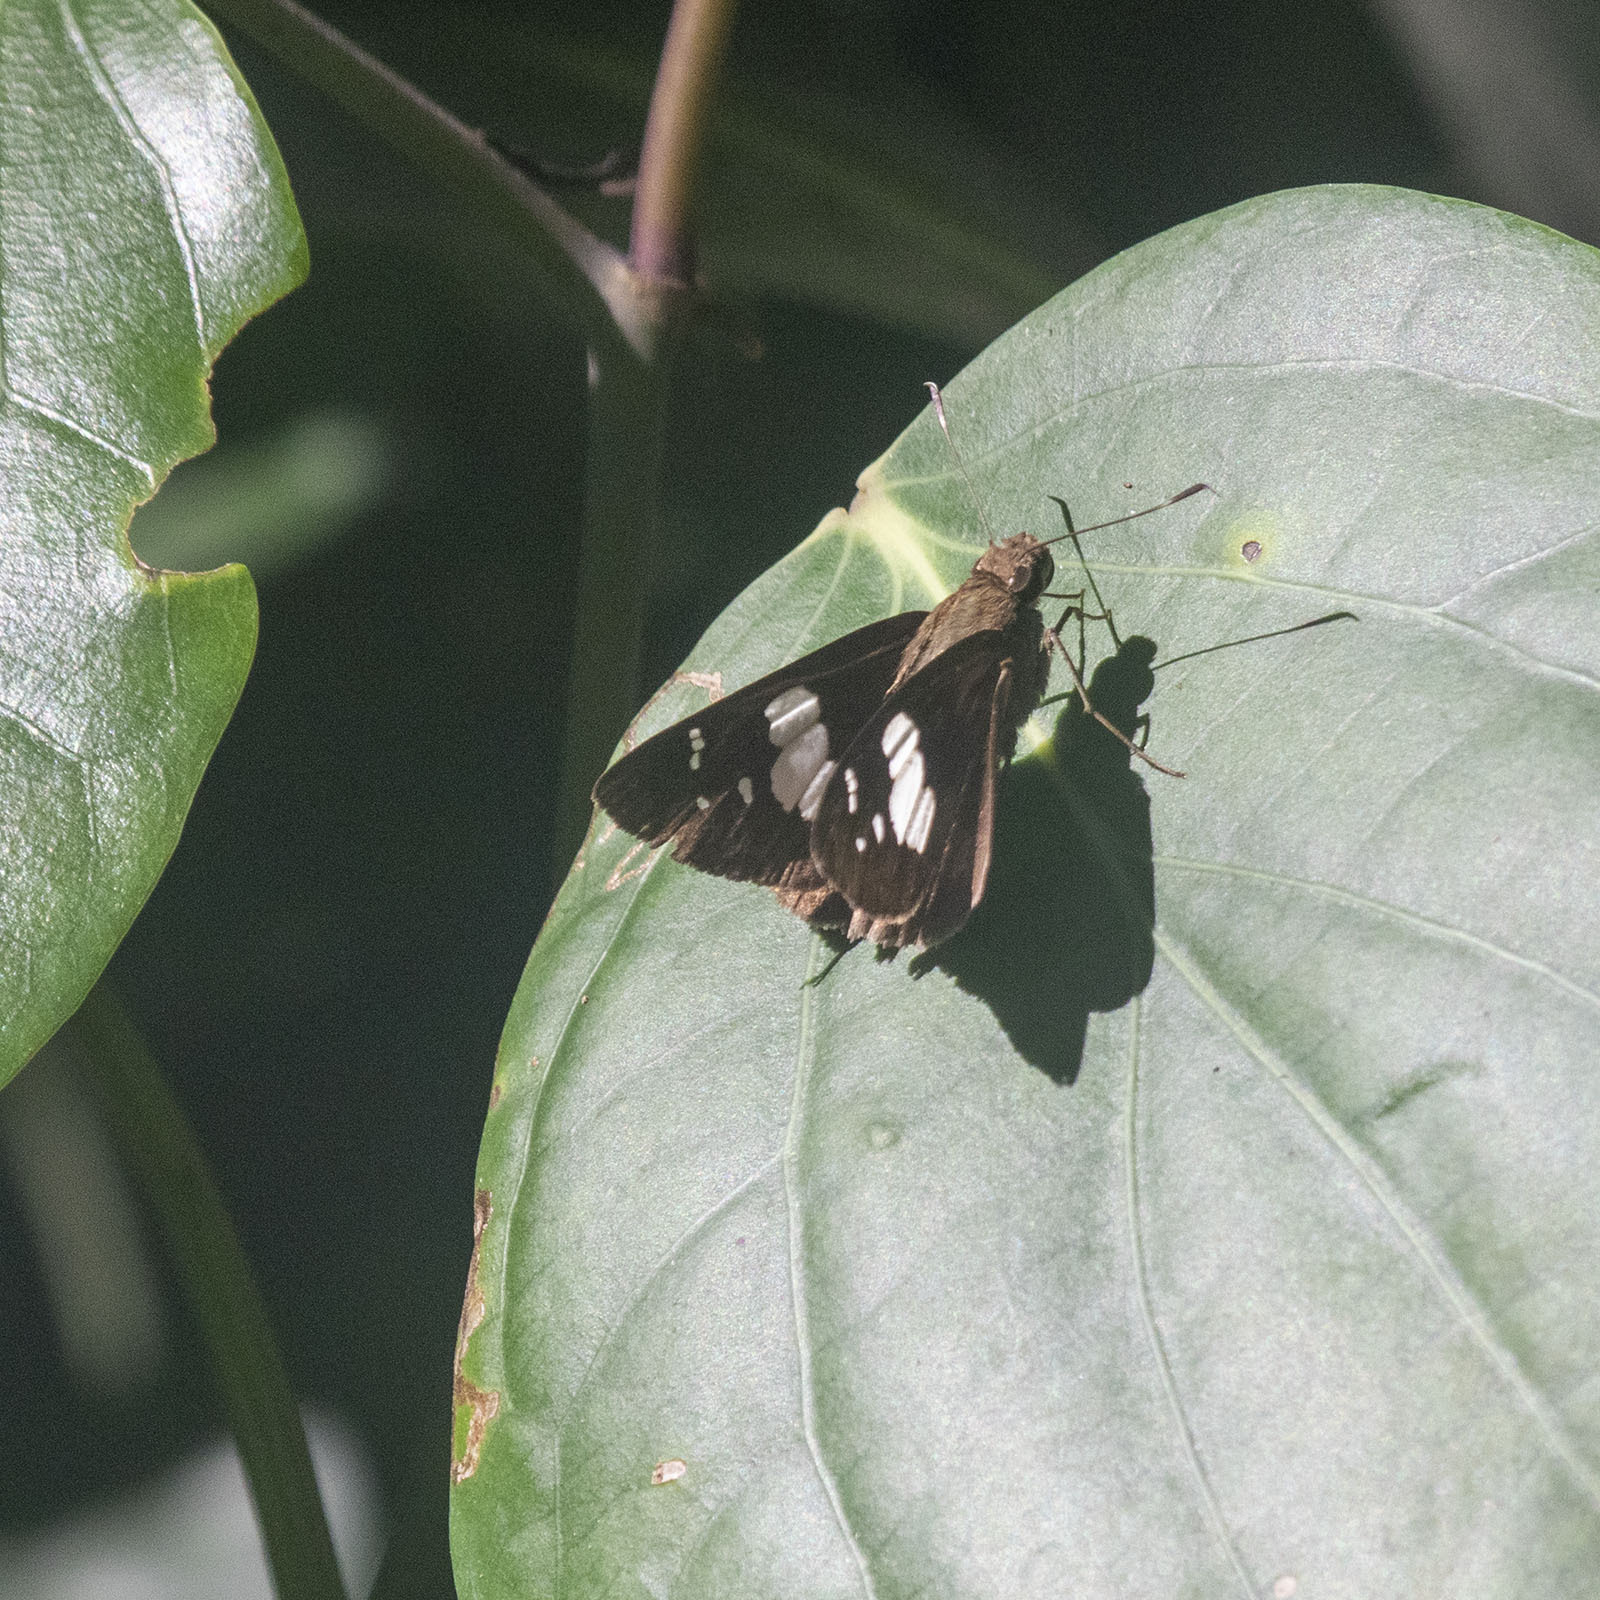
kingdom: Animalia
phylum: Arthropoda
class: Insecta
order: Lepidoptera
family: Hesperiidae
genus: Notocrypta
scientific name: Notocrypta curvifascia
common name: Restricted demon
